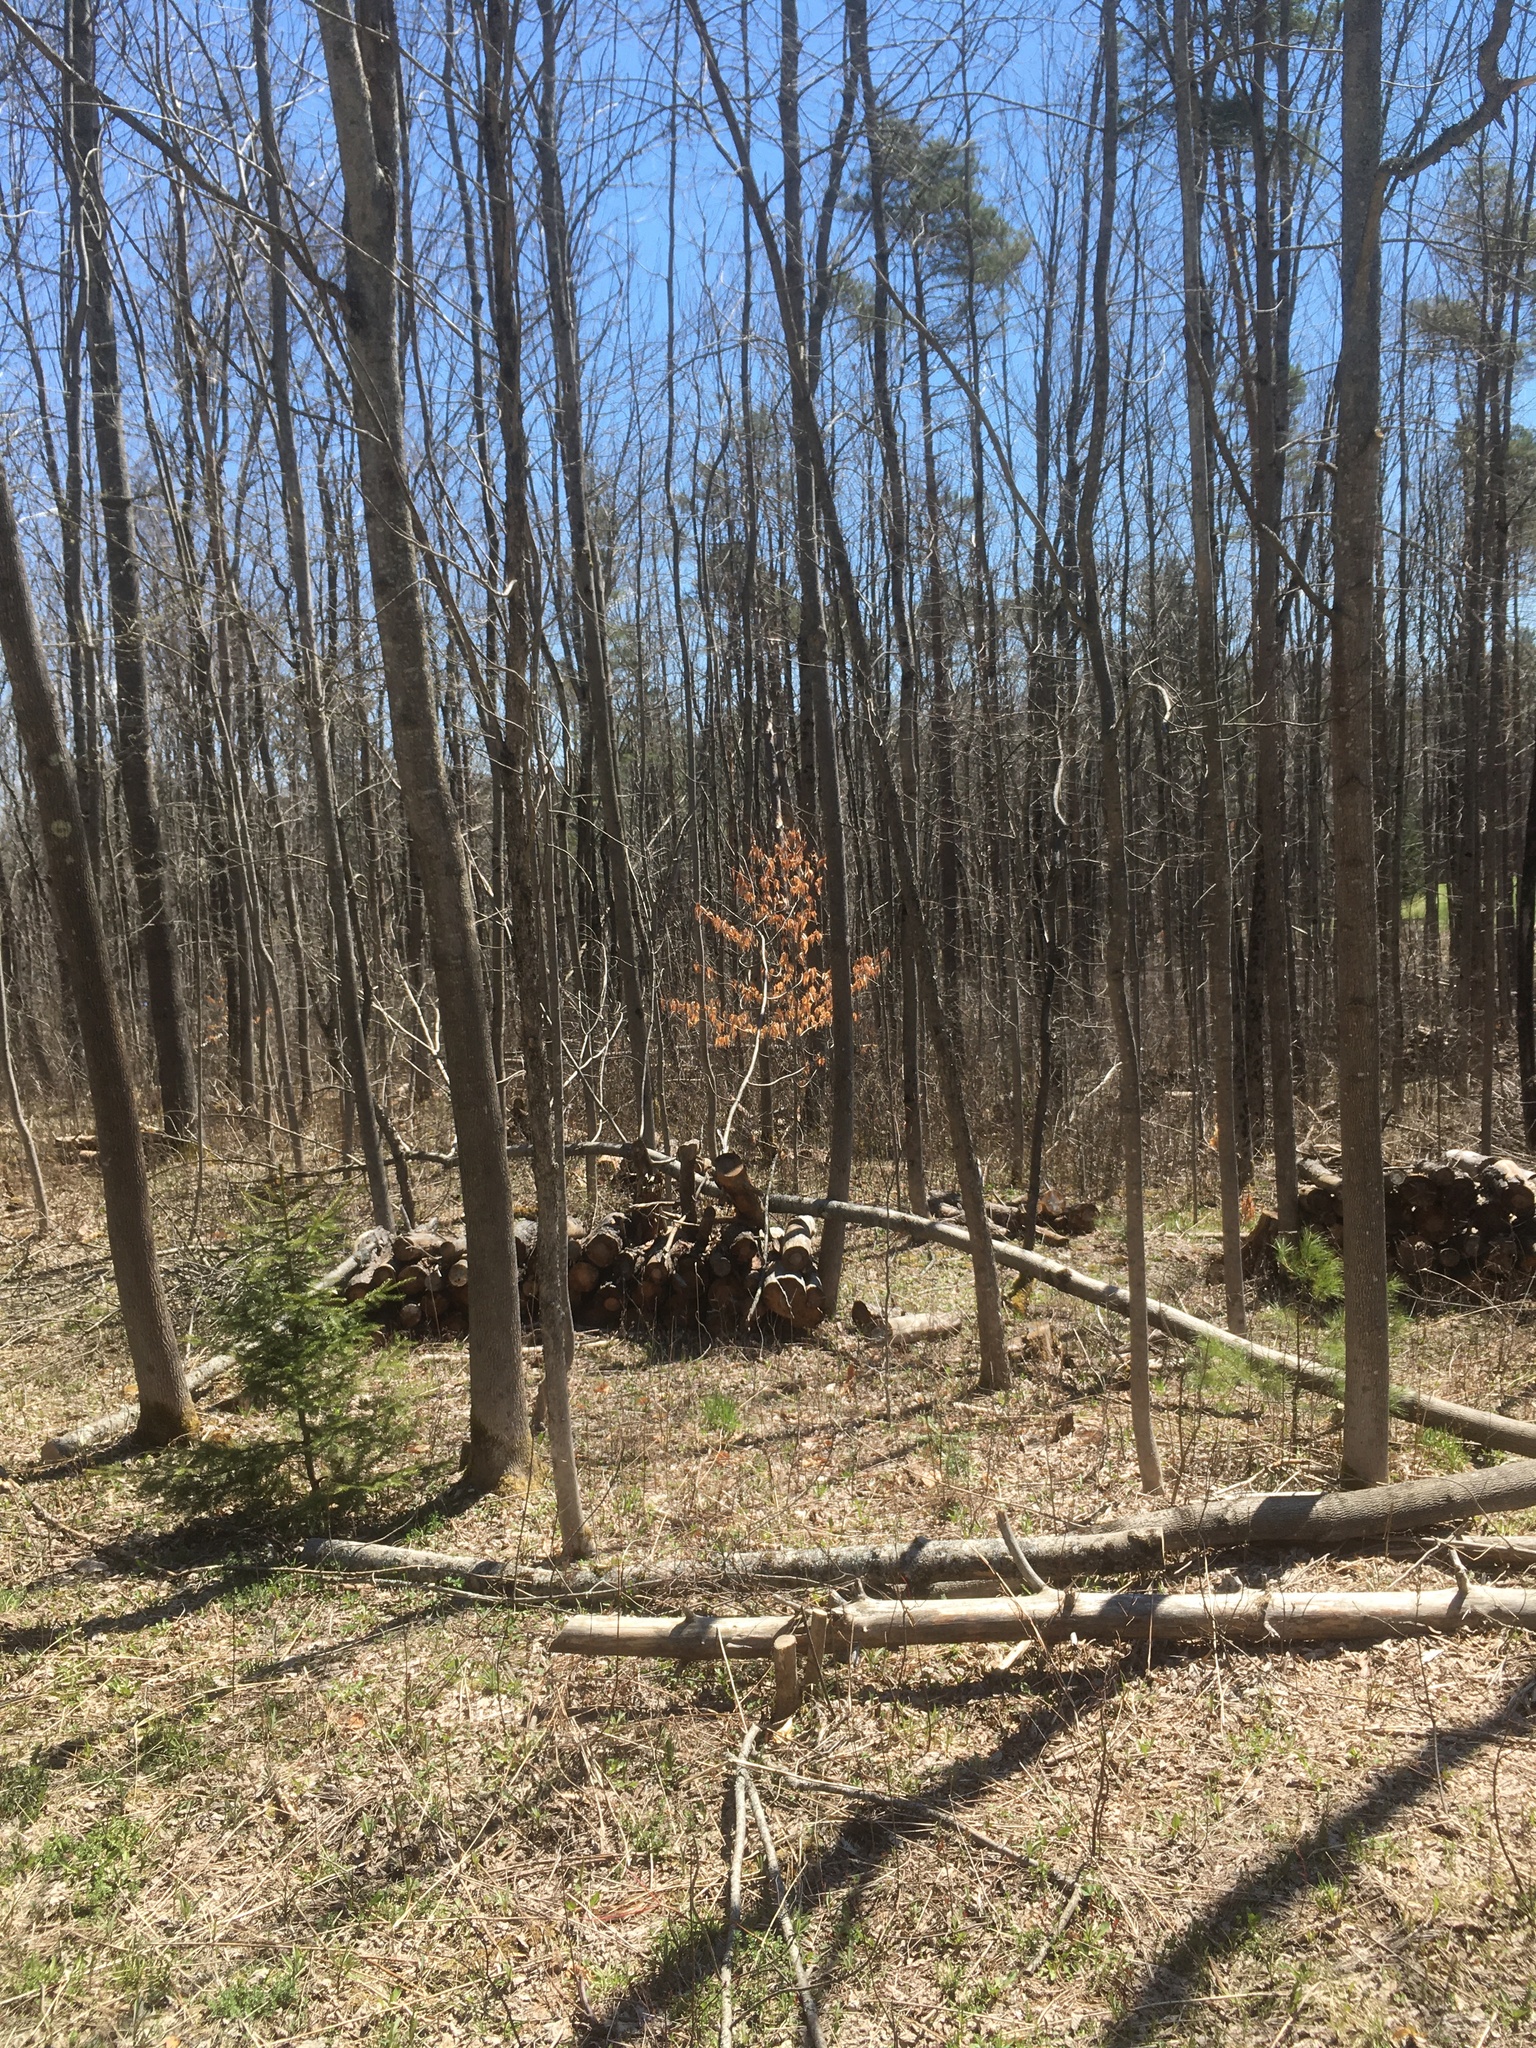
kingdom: Plantae
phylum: Tracheophyta
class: Magnoliopsida
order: Fagales
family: Fagaceae
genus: Fagus
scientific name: Fagus grandifolia
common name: American beech
